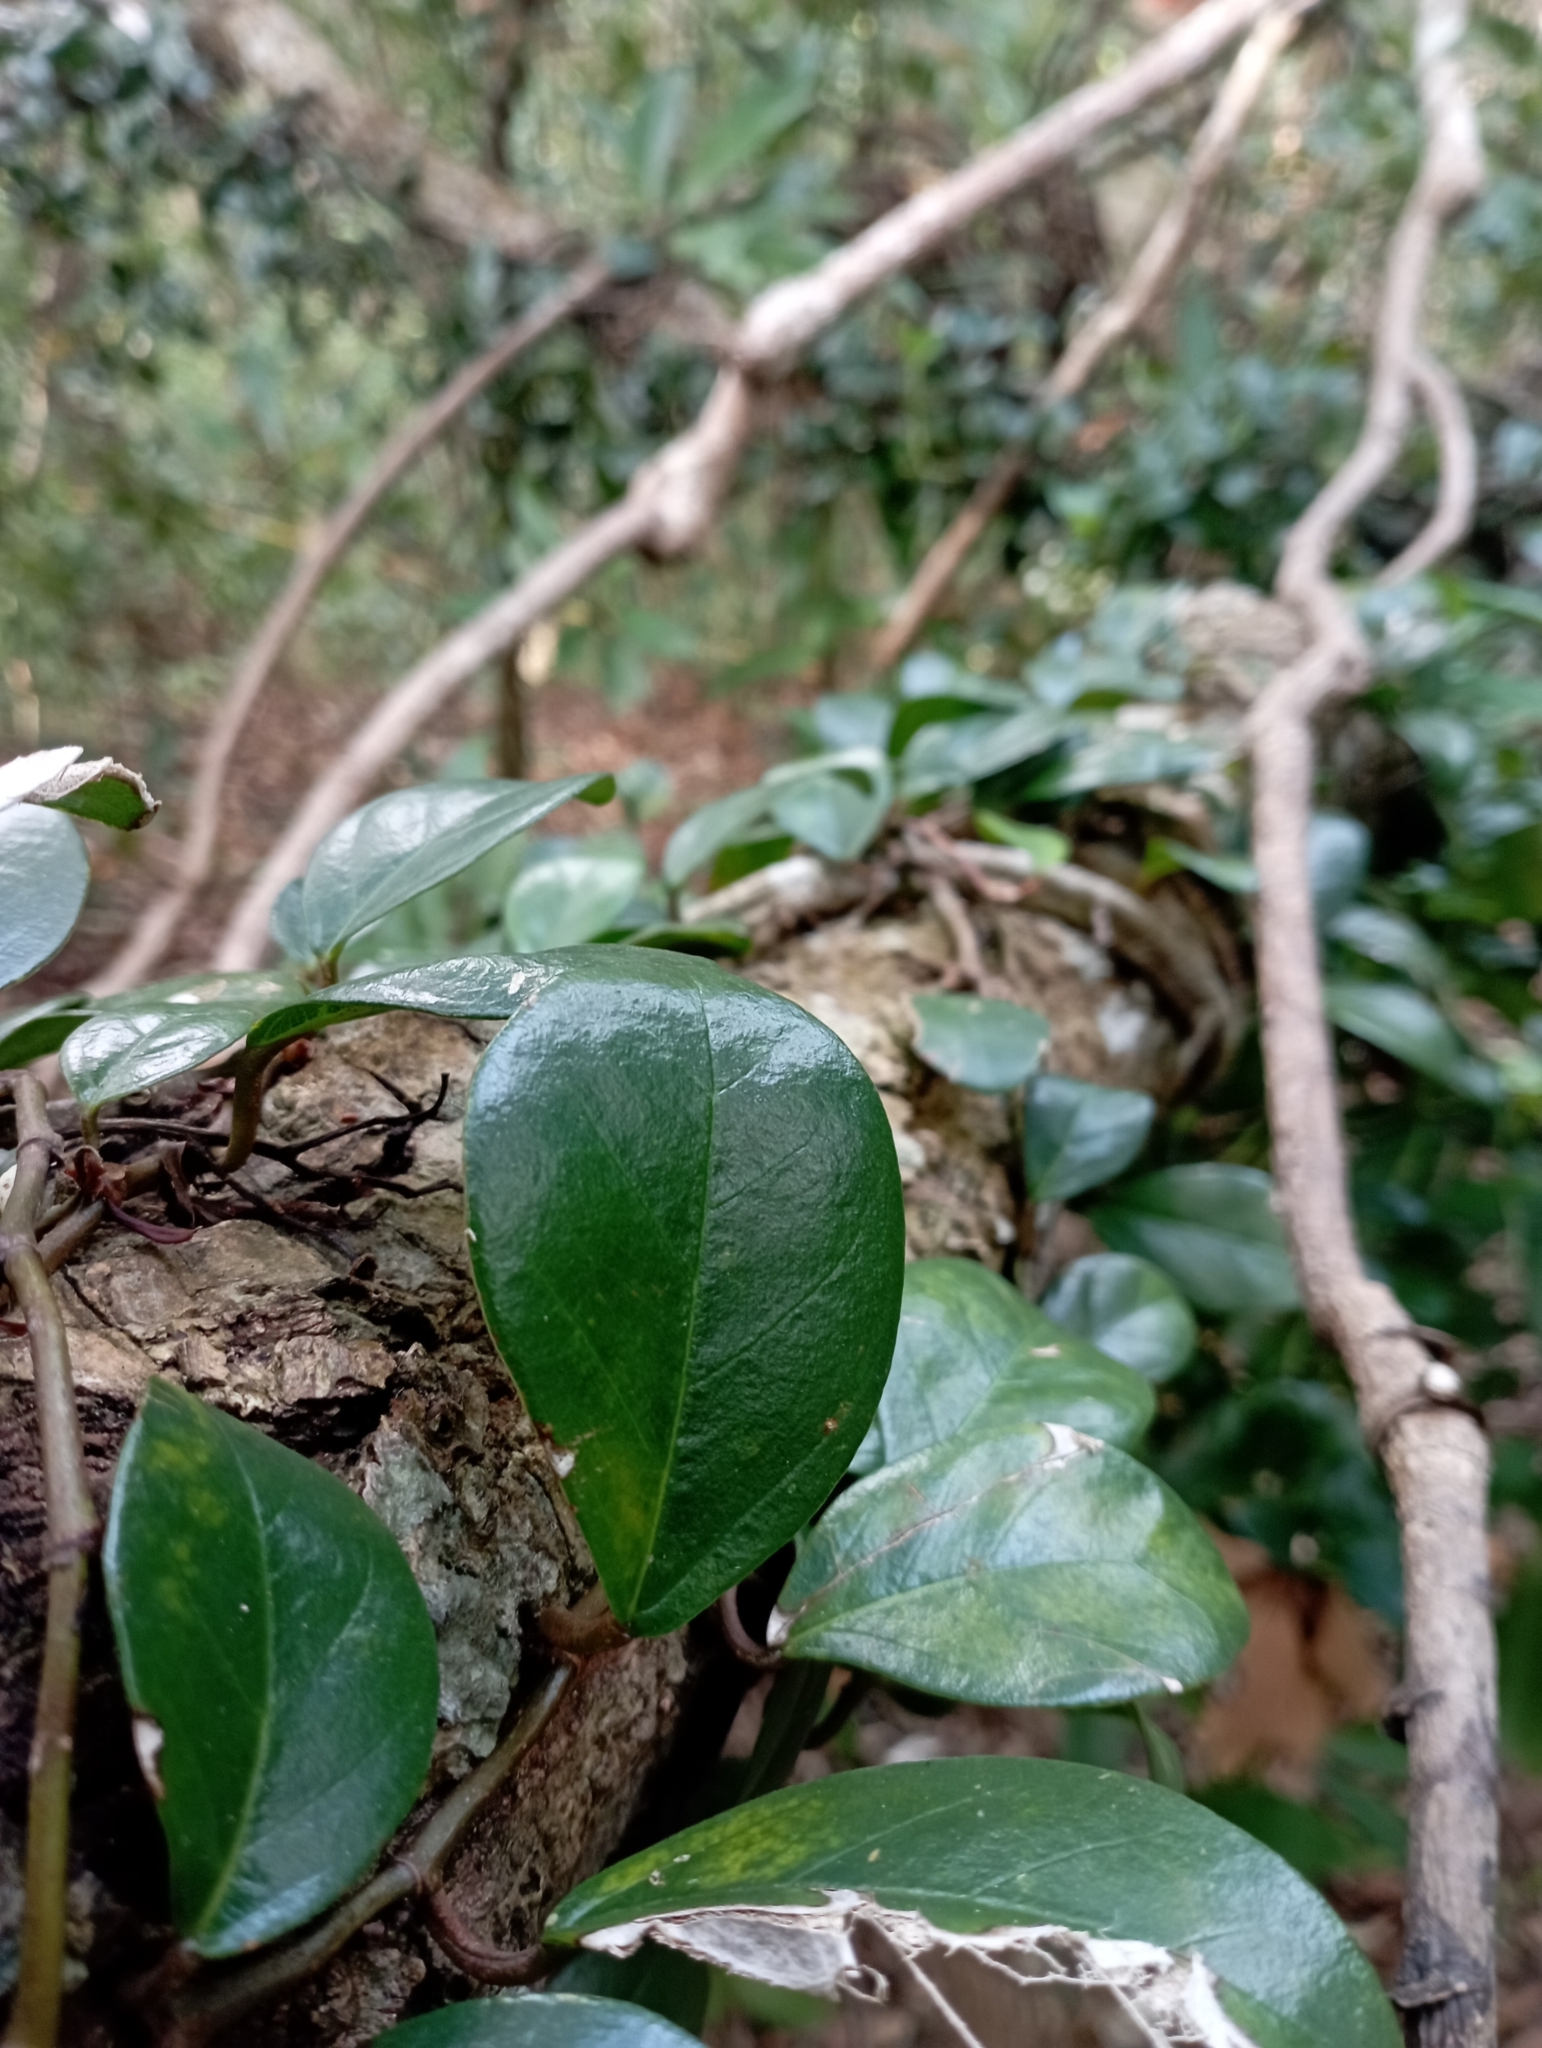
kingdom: Plantae
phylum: Tracheophyta
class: Magnoliopsida
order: Rosales
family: Moraceae
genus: Ficus
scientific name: Ficus punctata
